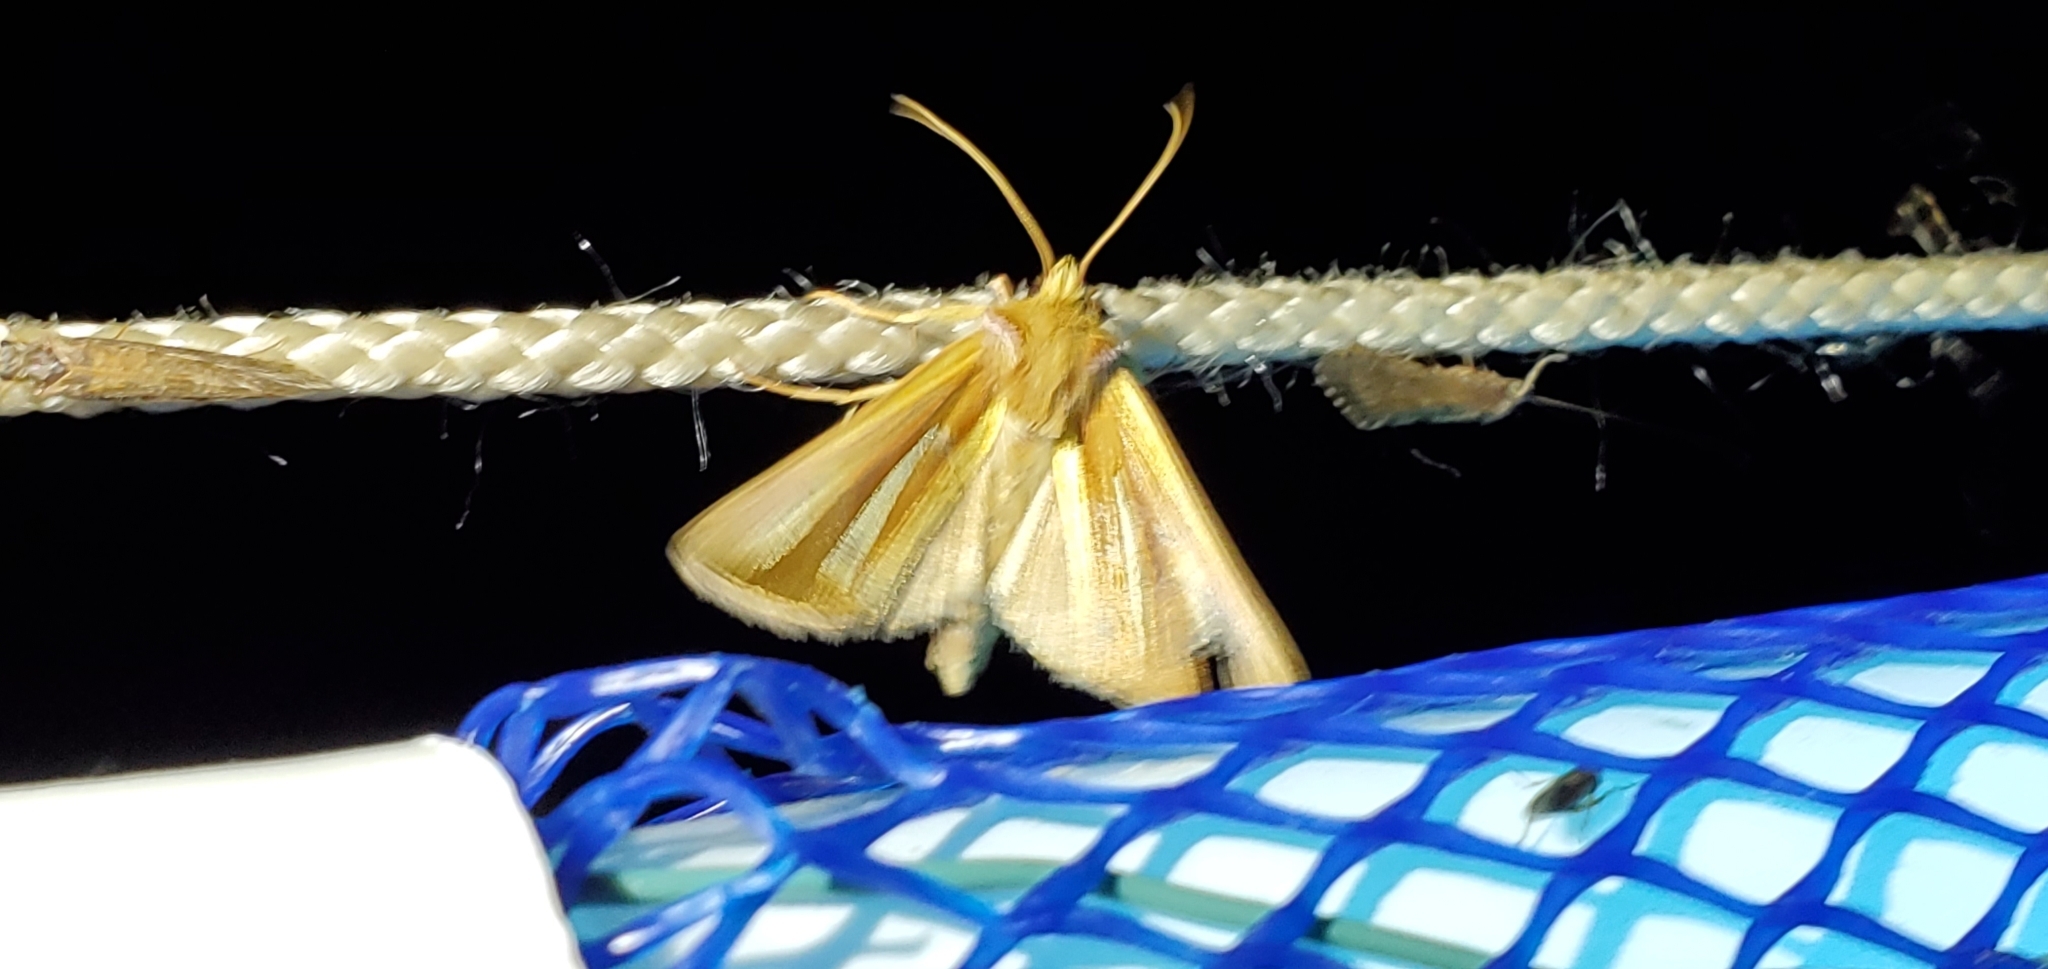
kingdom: Animalia
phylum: Arthropoda
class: Insecta
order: Lepidoptera
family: Noctuidae
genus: Plusia
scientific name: Plusia venusta
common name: White-streaked looper moth
